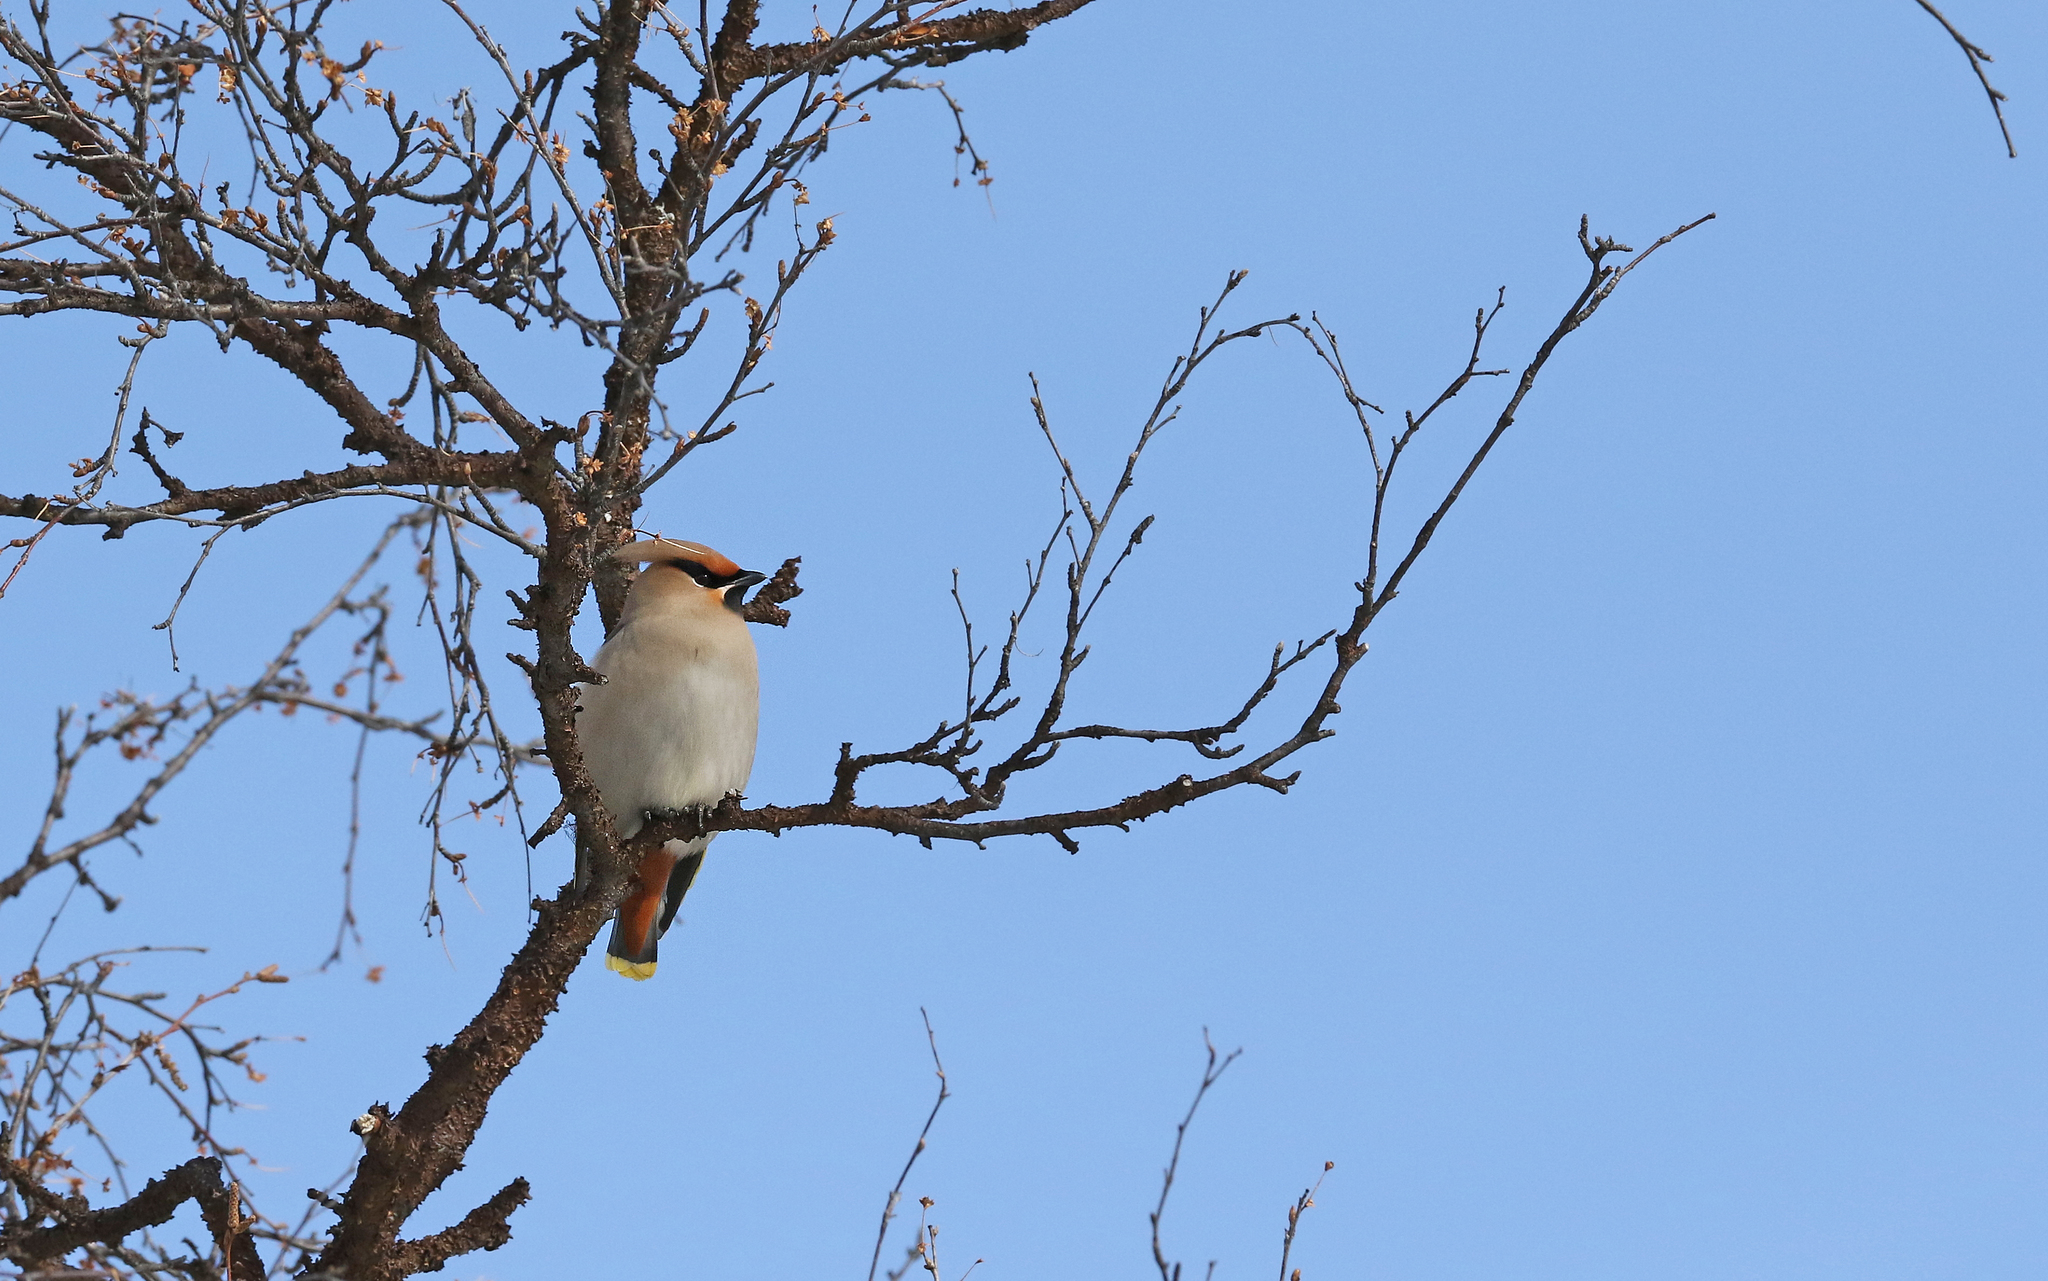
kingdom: Animalia
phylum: Chordata
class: Aves
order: Passeriformes
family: Bombycillidae
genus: Bombycilla
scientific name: Bombycilla garrulus
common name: Bohemian waxwing
